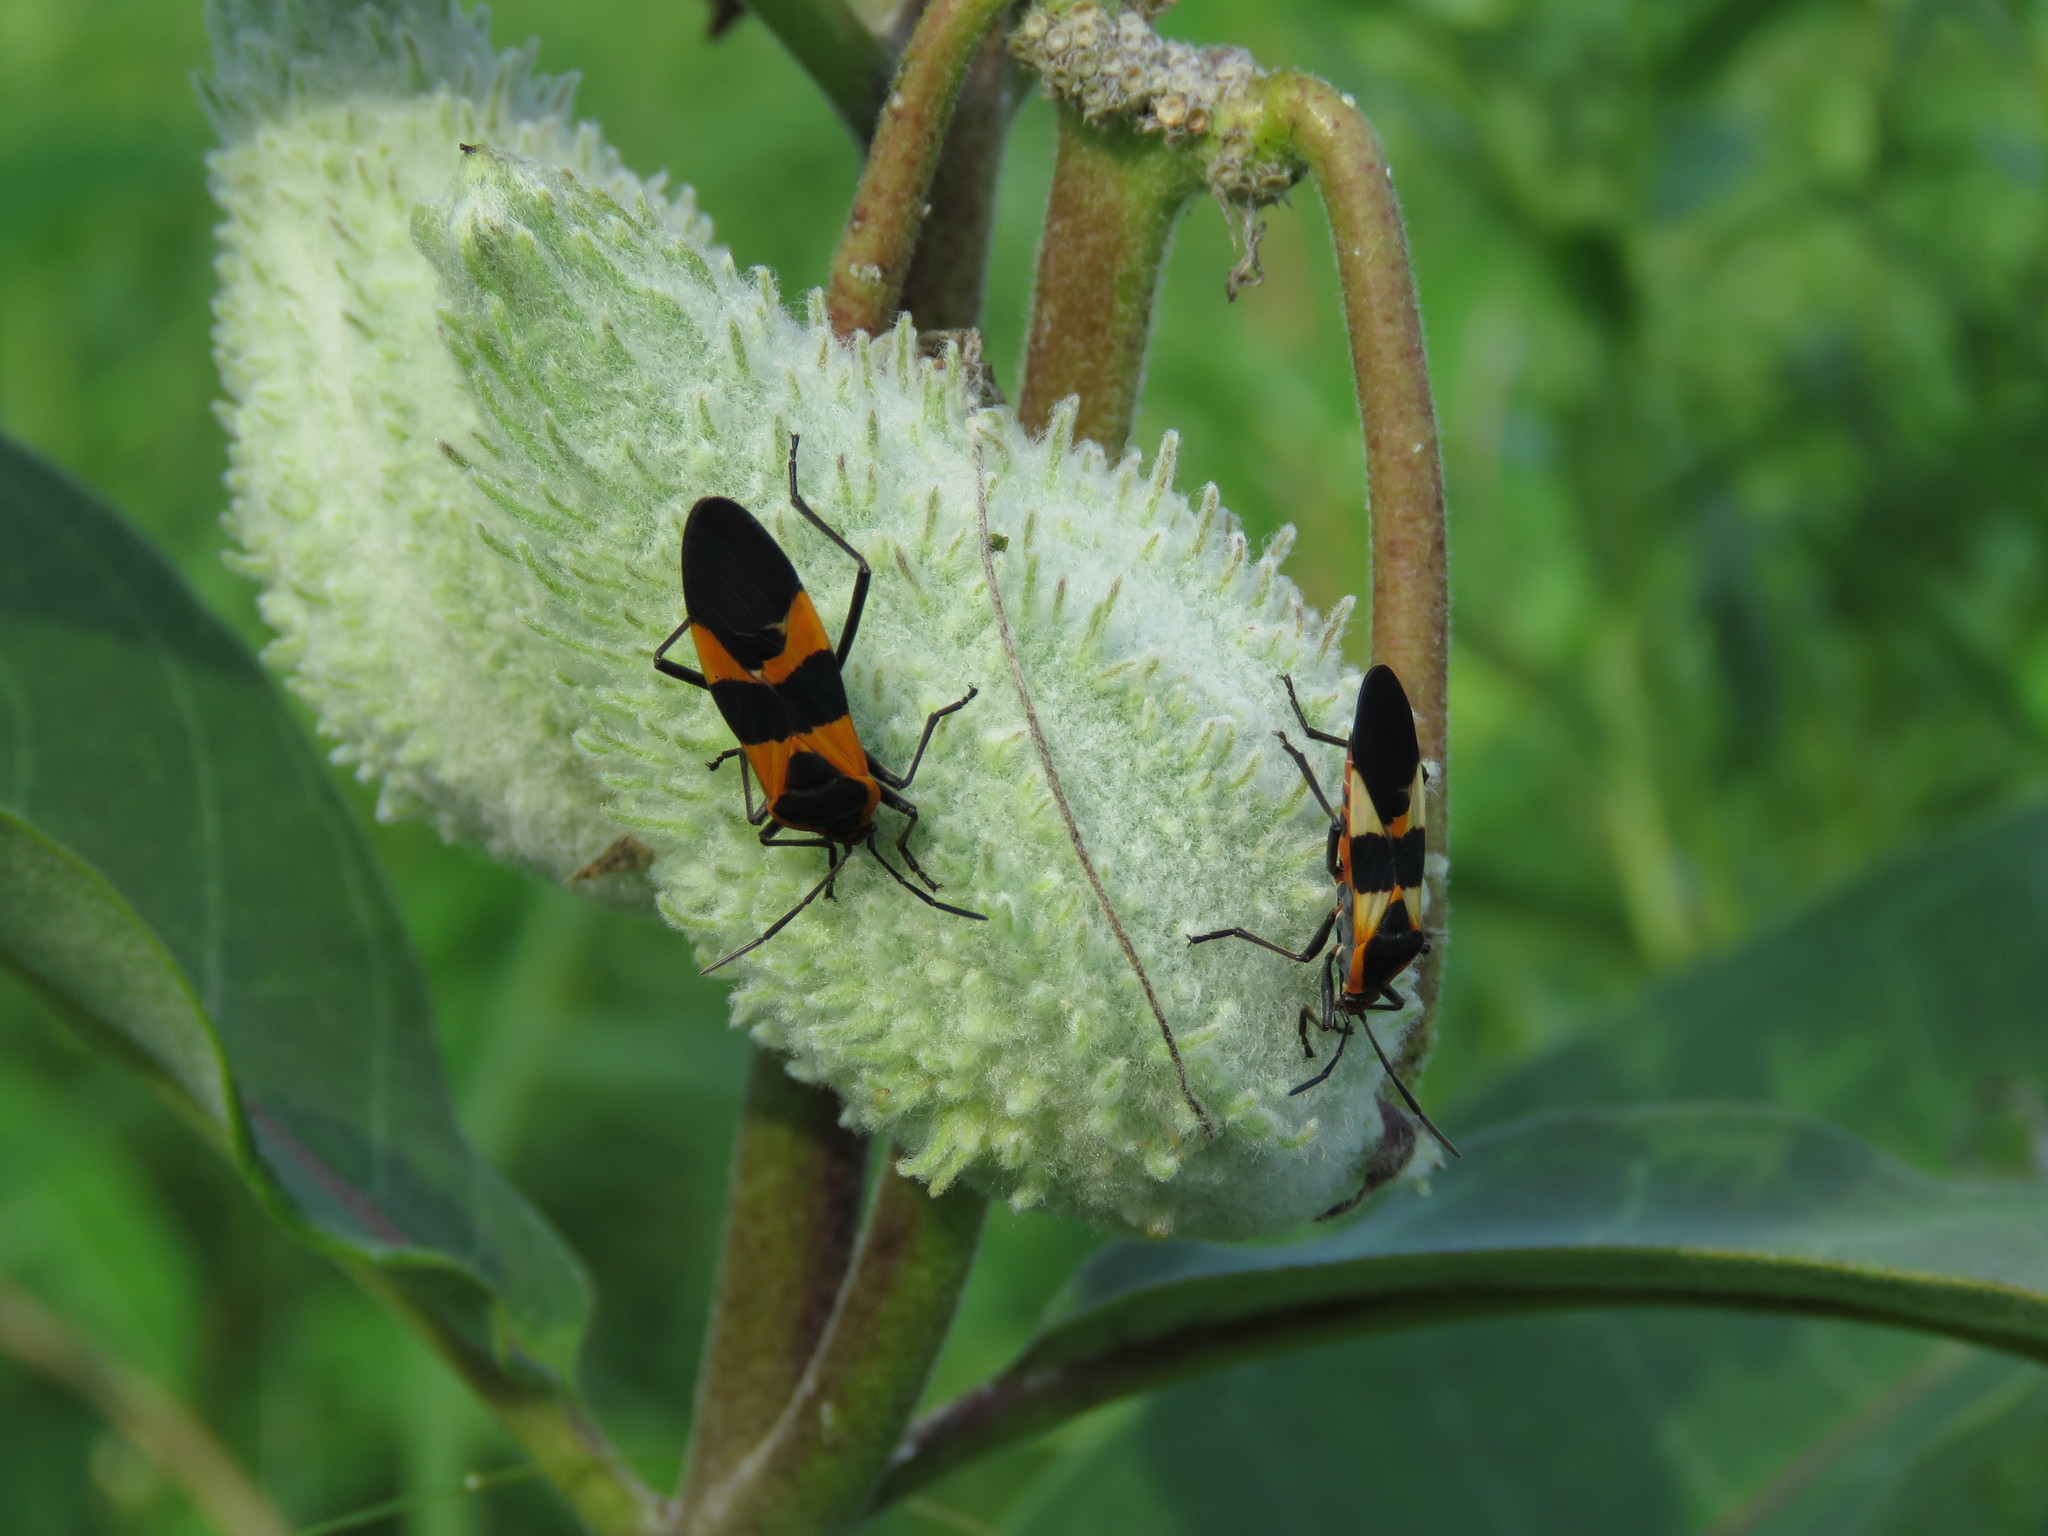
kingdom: Animalia
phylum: Arthropoda
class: Insecta
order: Hemiptera
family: Lygaeidae
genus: Oncopeltus
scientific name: Oncopeltus fasciatus
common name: Large milkweed bug
